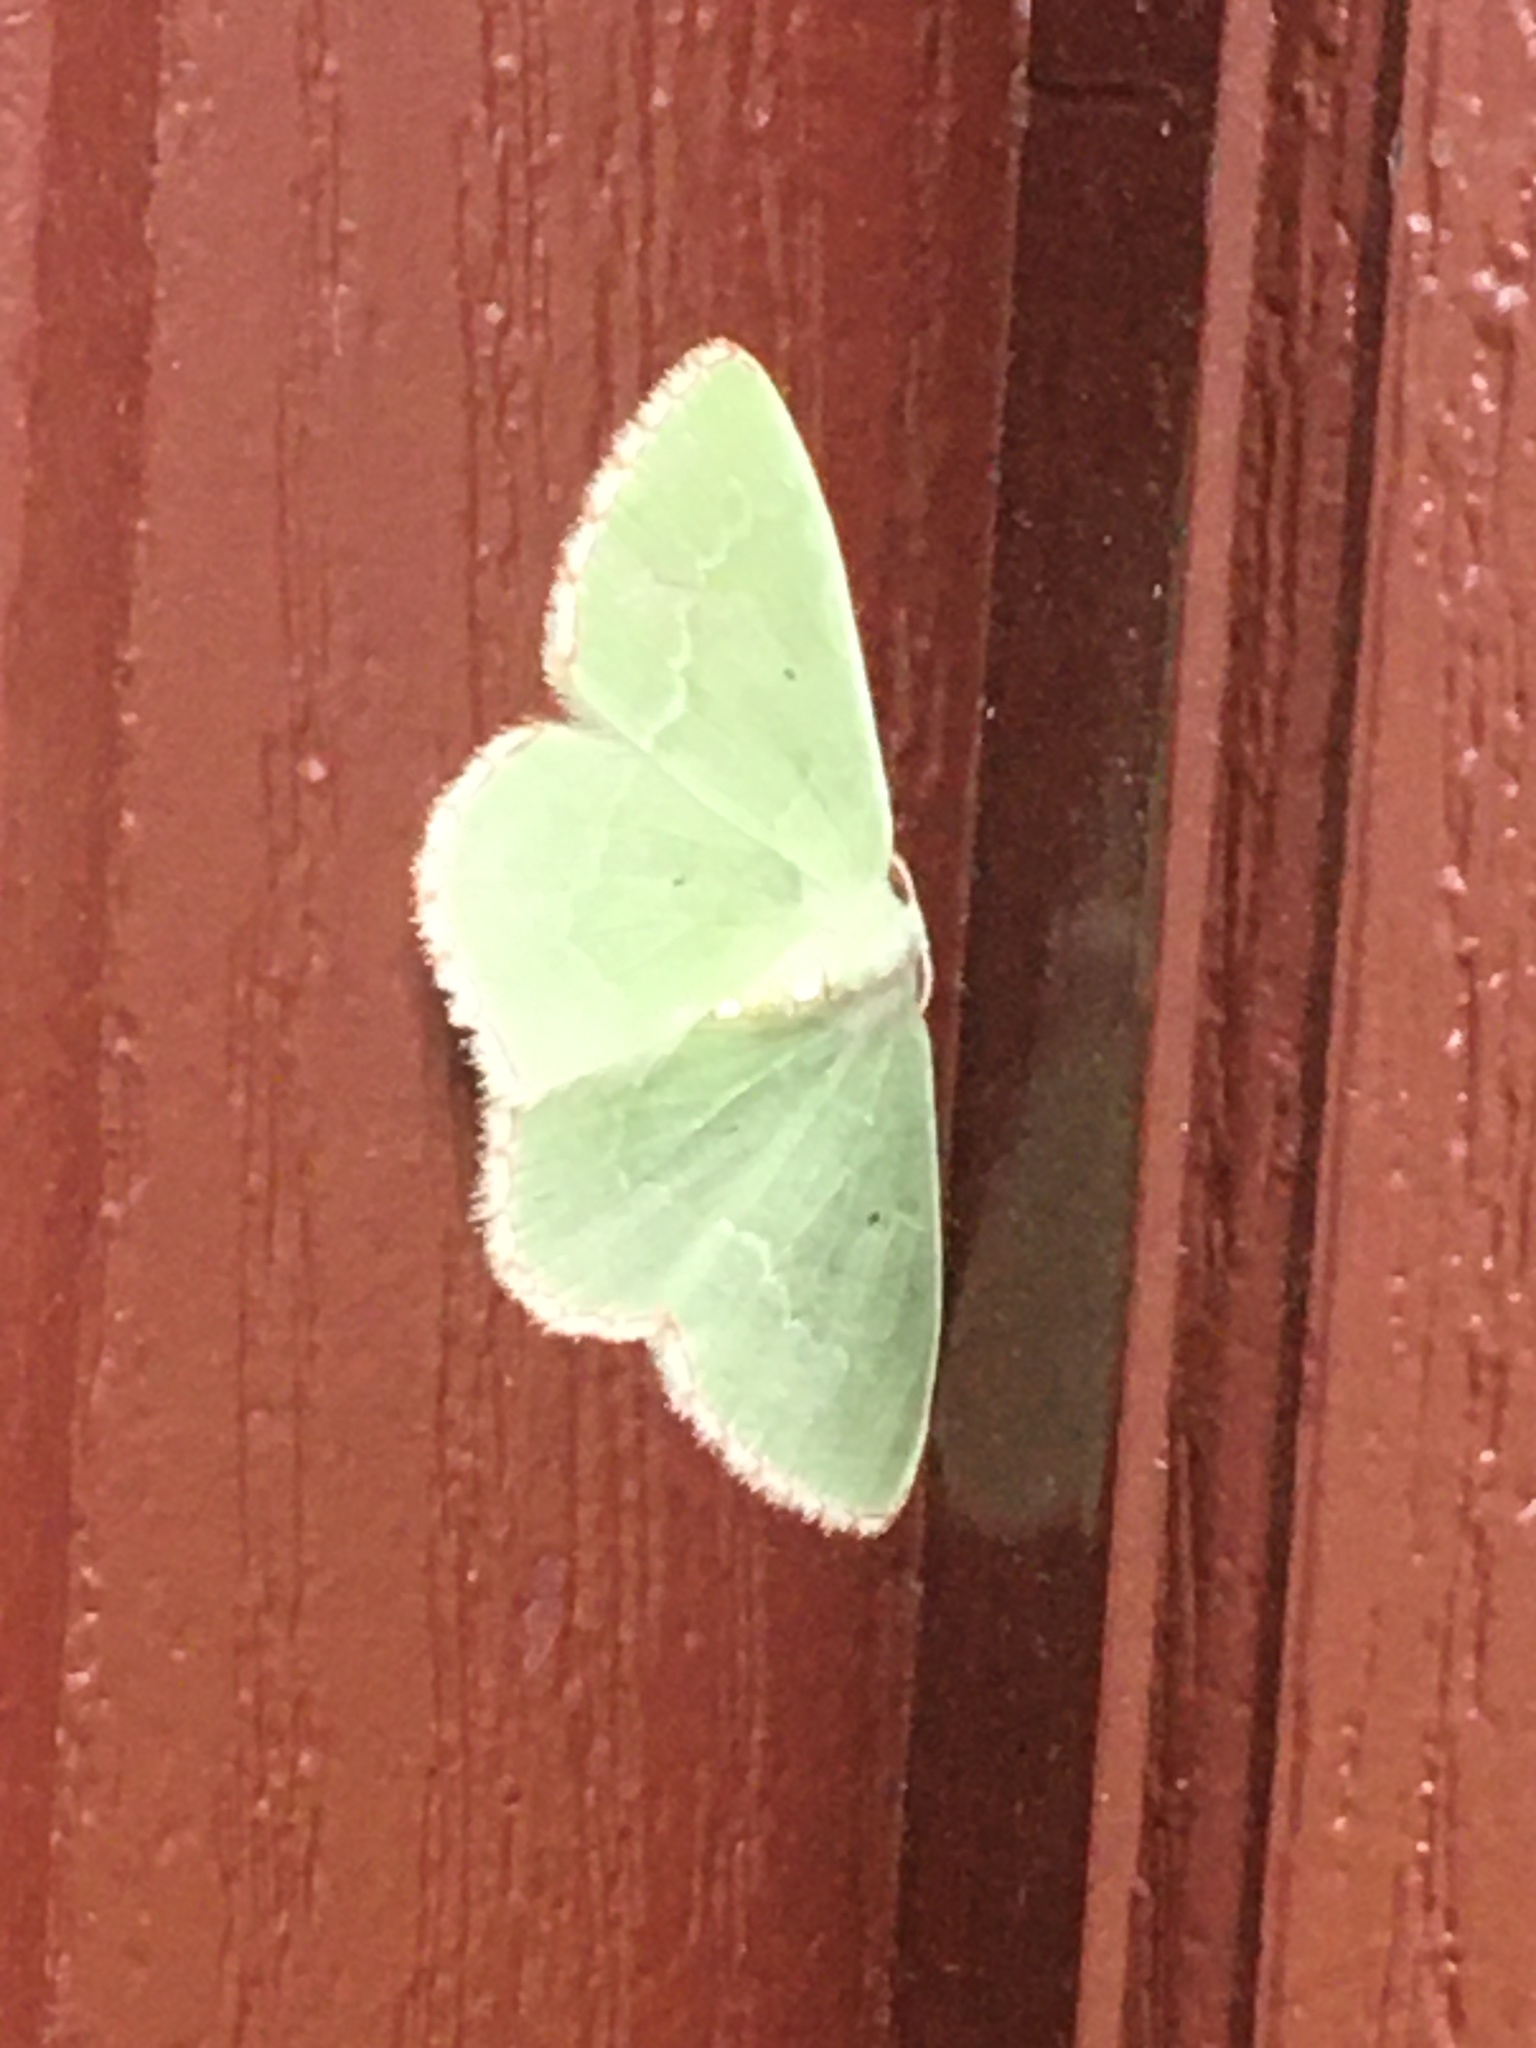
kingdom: Animalia
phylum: Arthropoda
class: Insecta
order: Lepidoptera
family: Geometridae
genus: Nemoria
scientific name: Nemoria lixaria
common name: Red-bordered emerald
